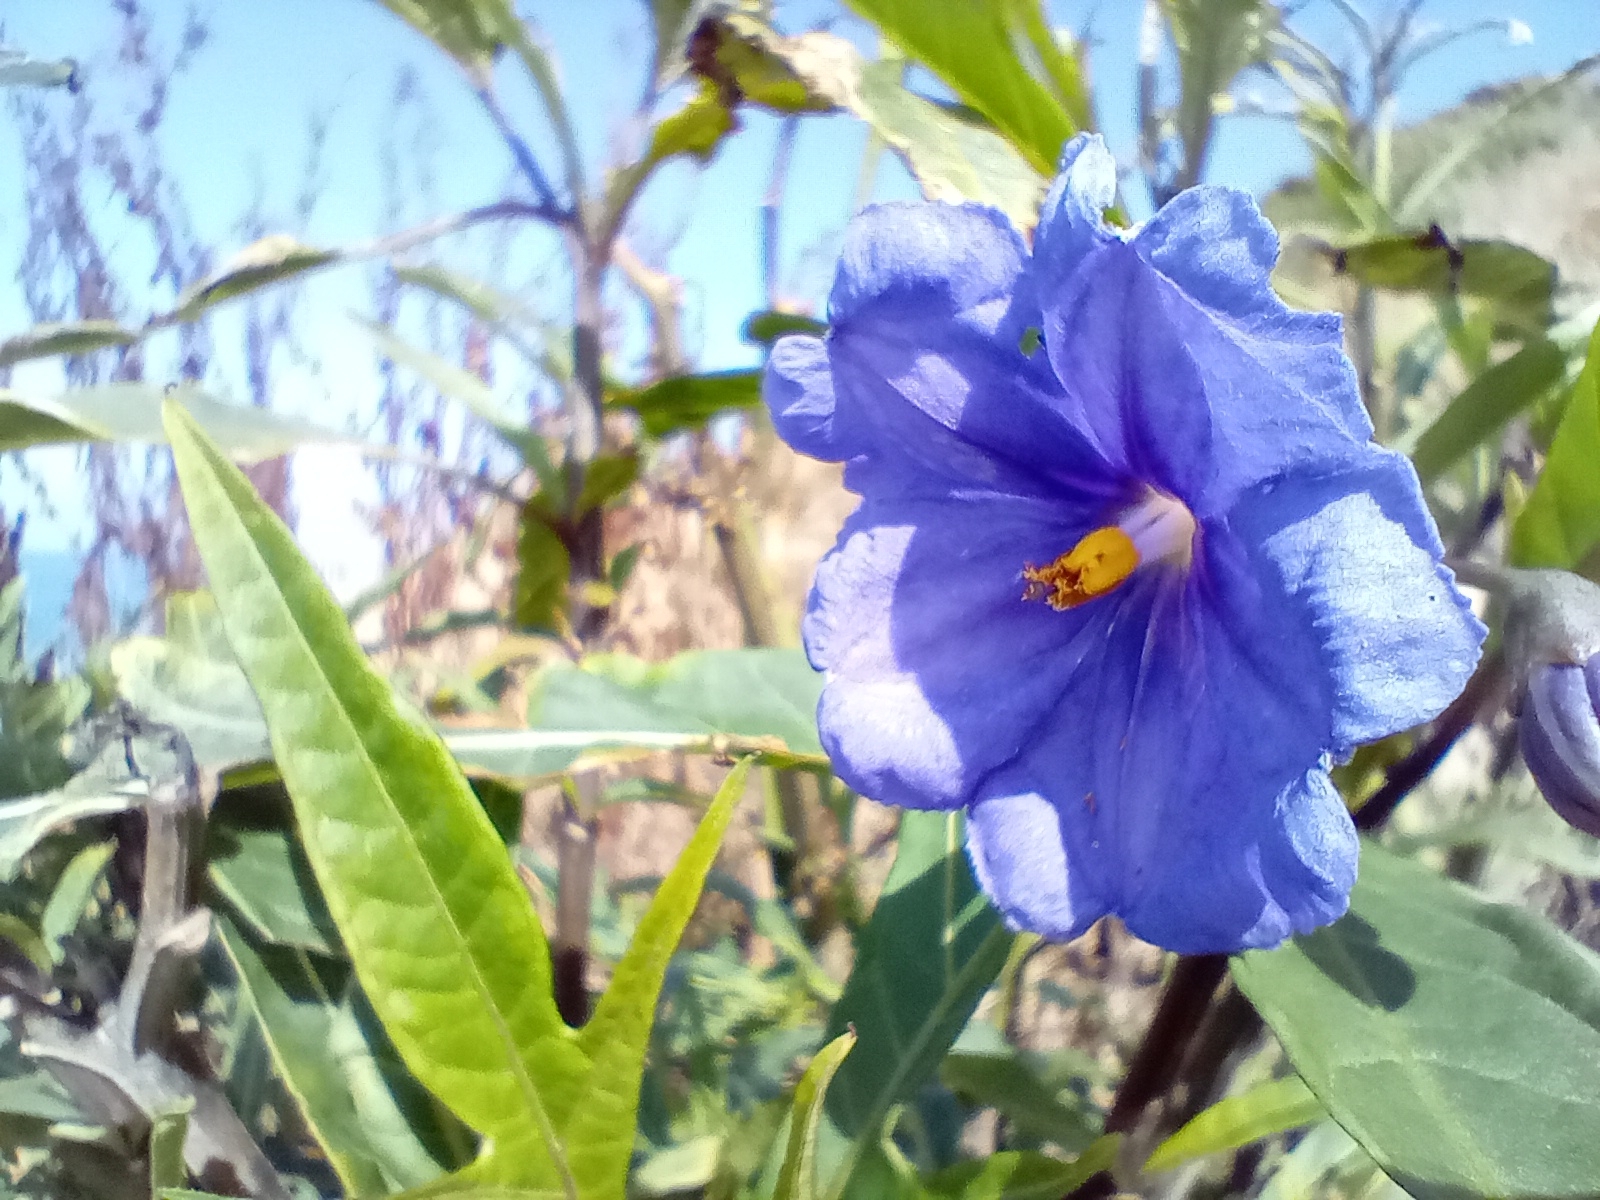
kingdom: Plantae
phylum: Tracheophyta
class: Magnoliopsida
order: Solanales
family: Solanaceae
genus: Solanum
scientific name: Solanum laciniatum
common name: Kangaroo-apple
